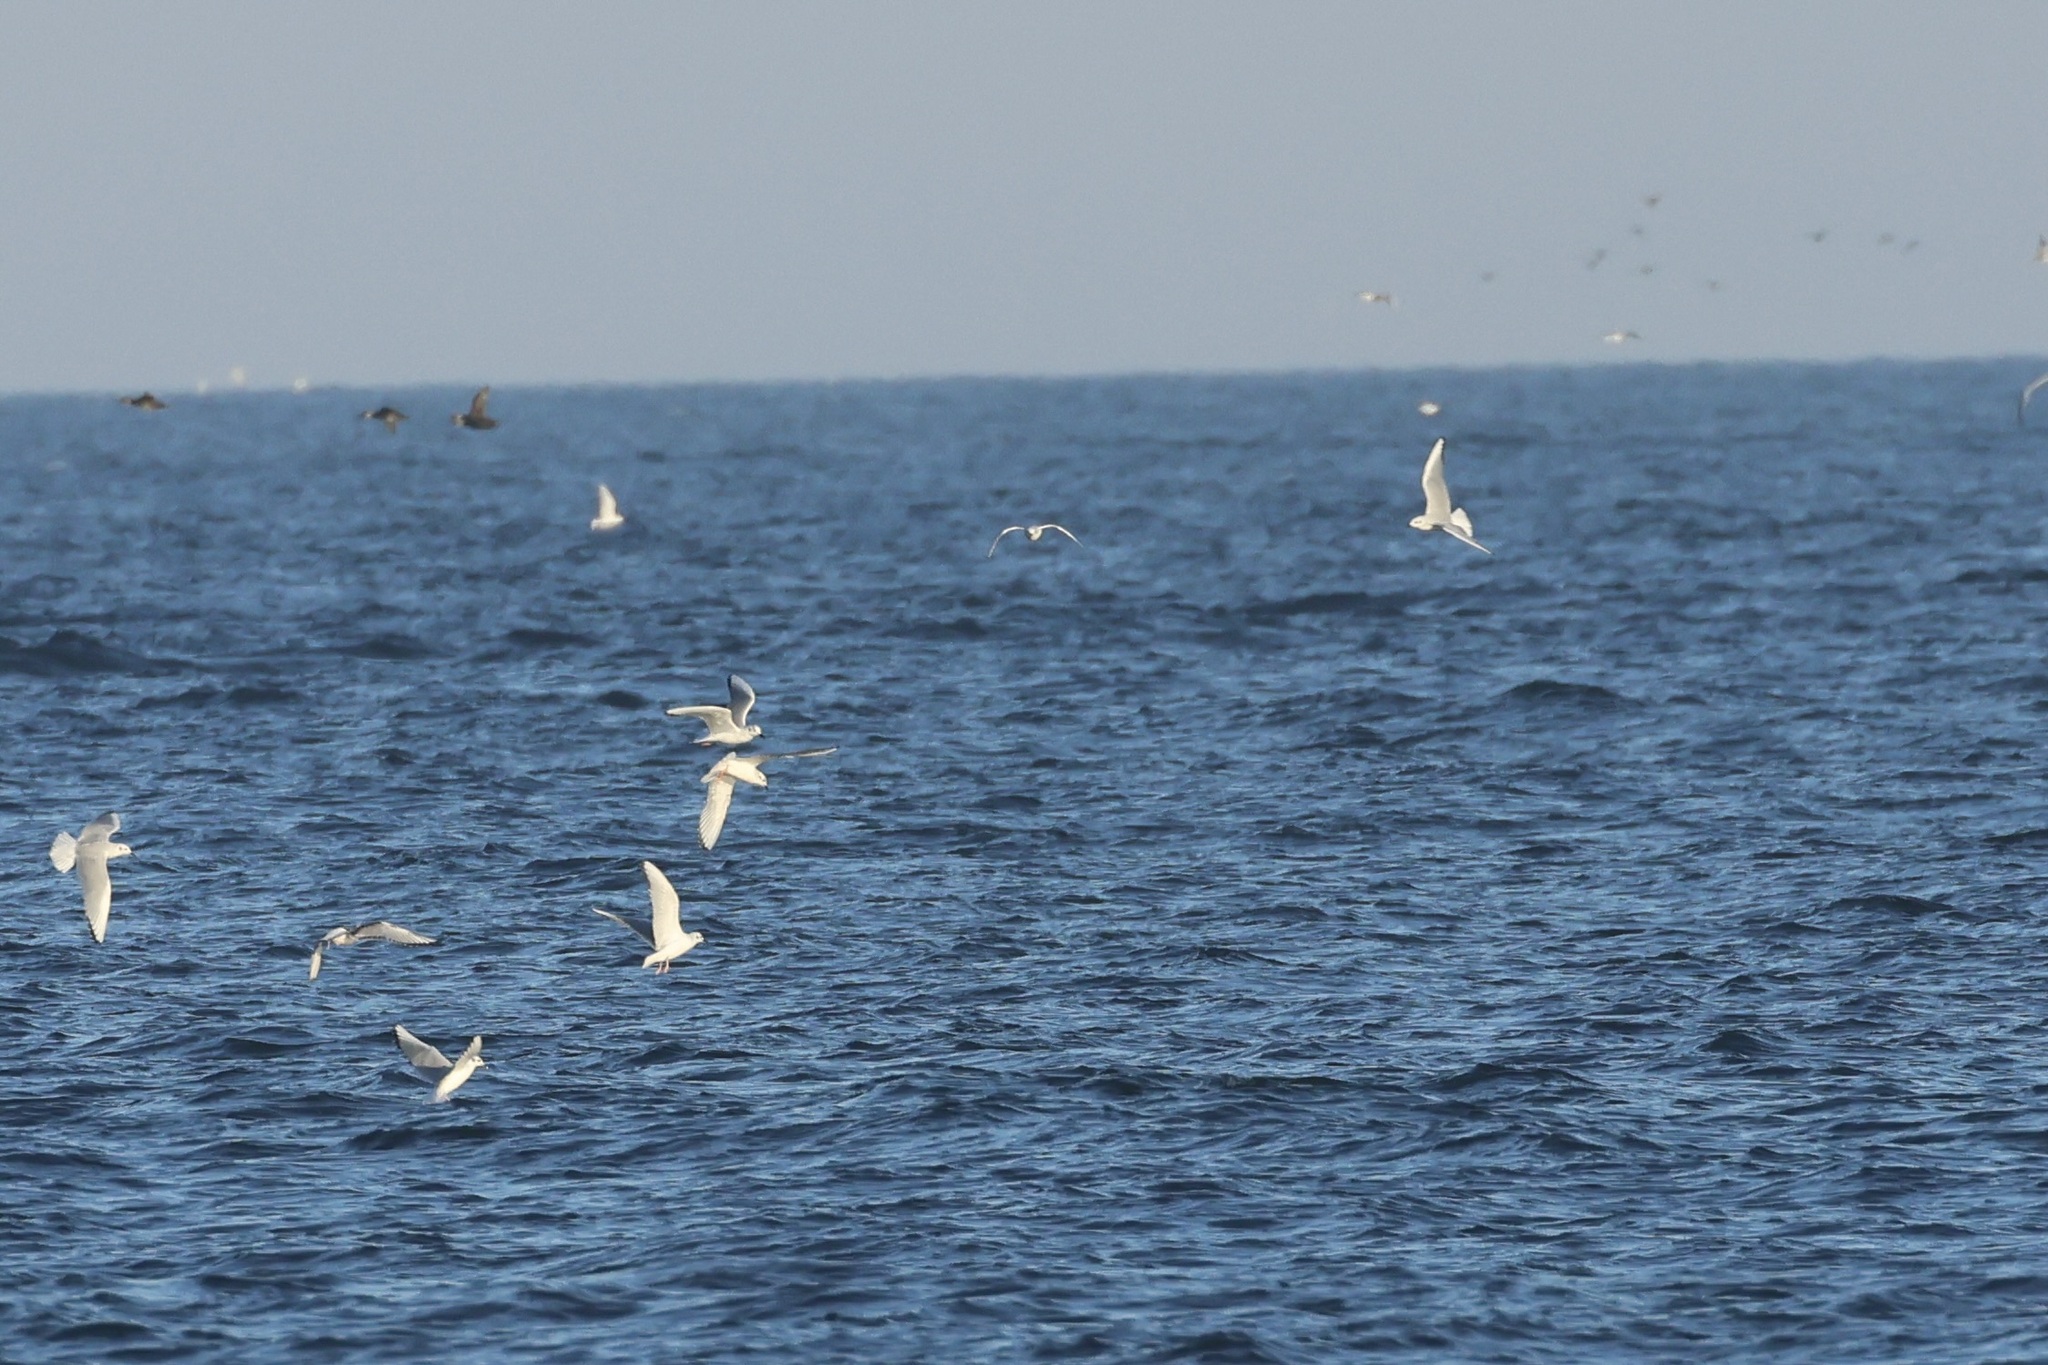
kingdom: Animalia
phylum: Chordata
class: Aves
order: Charadriiformes
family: Laridae
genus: Chroicocephalus
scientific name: Chroicocephalus philadelphia
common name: Bonaparte's gull
